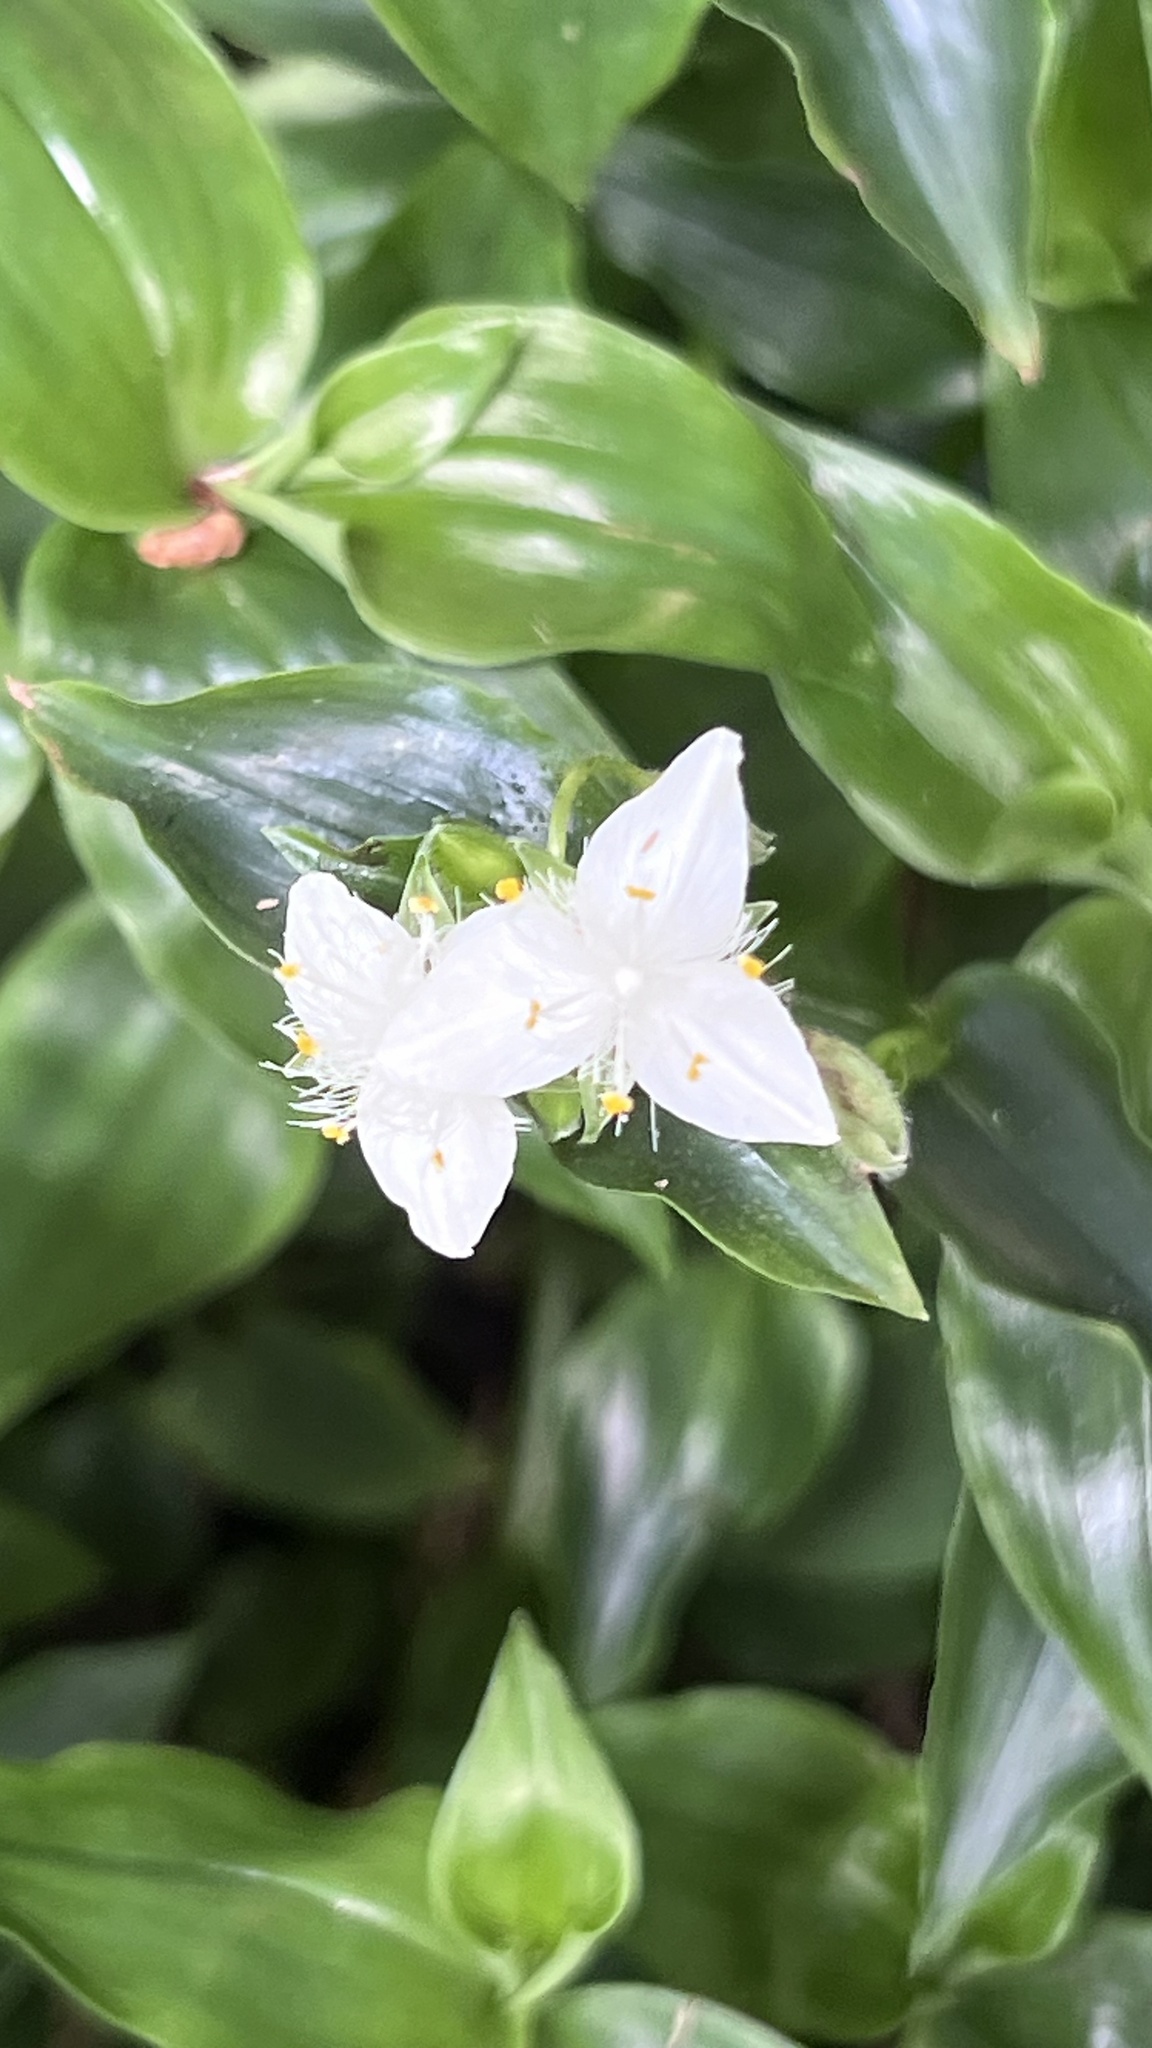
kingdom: Plantae
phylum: Tracheophyta
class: Liliopsida
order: Commelinales
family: Commelinaceae
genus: Tradescantia
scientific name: Tradescantia fluminensis
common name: Wandering-jew
